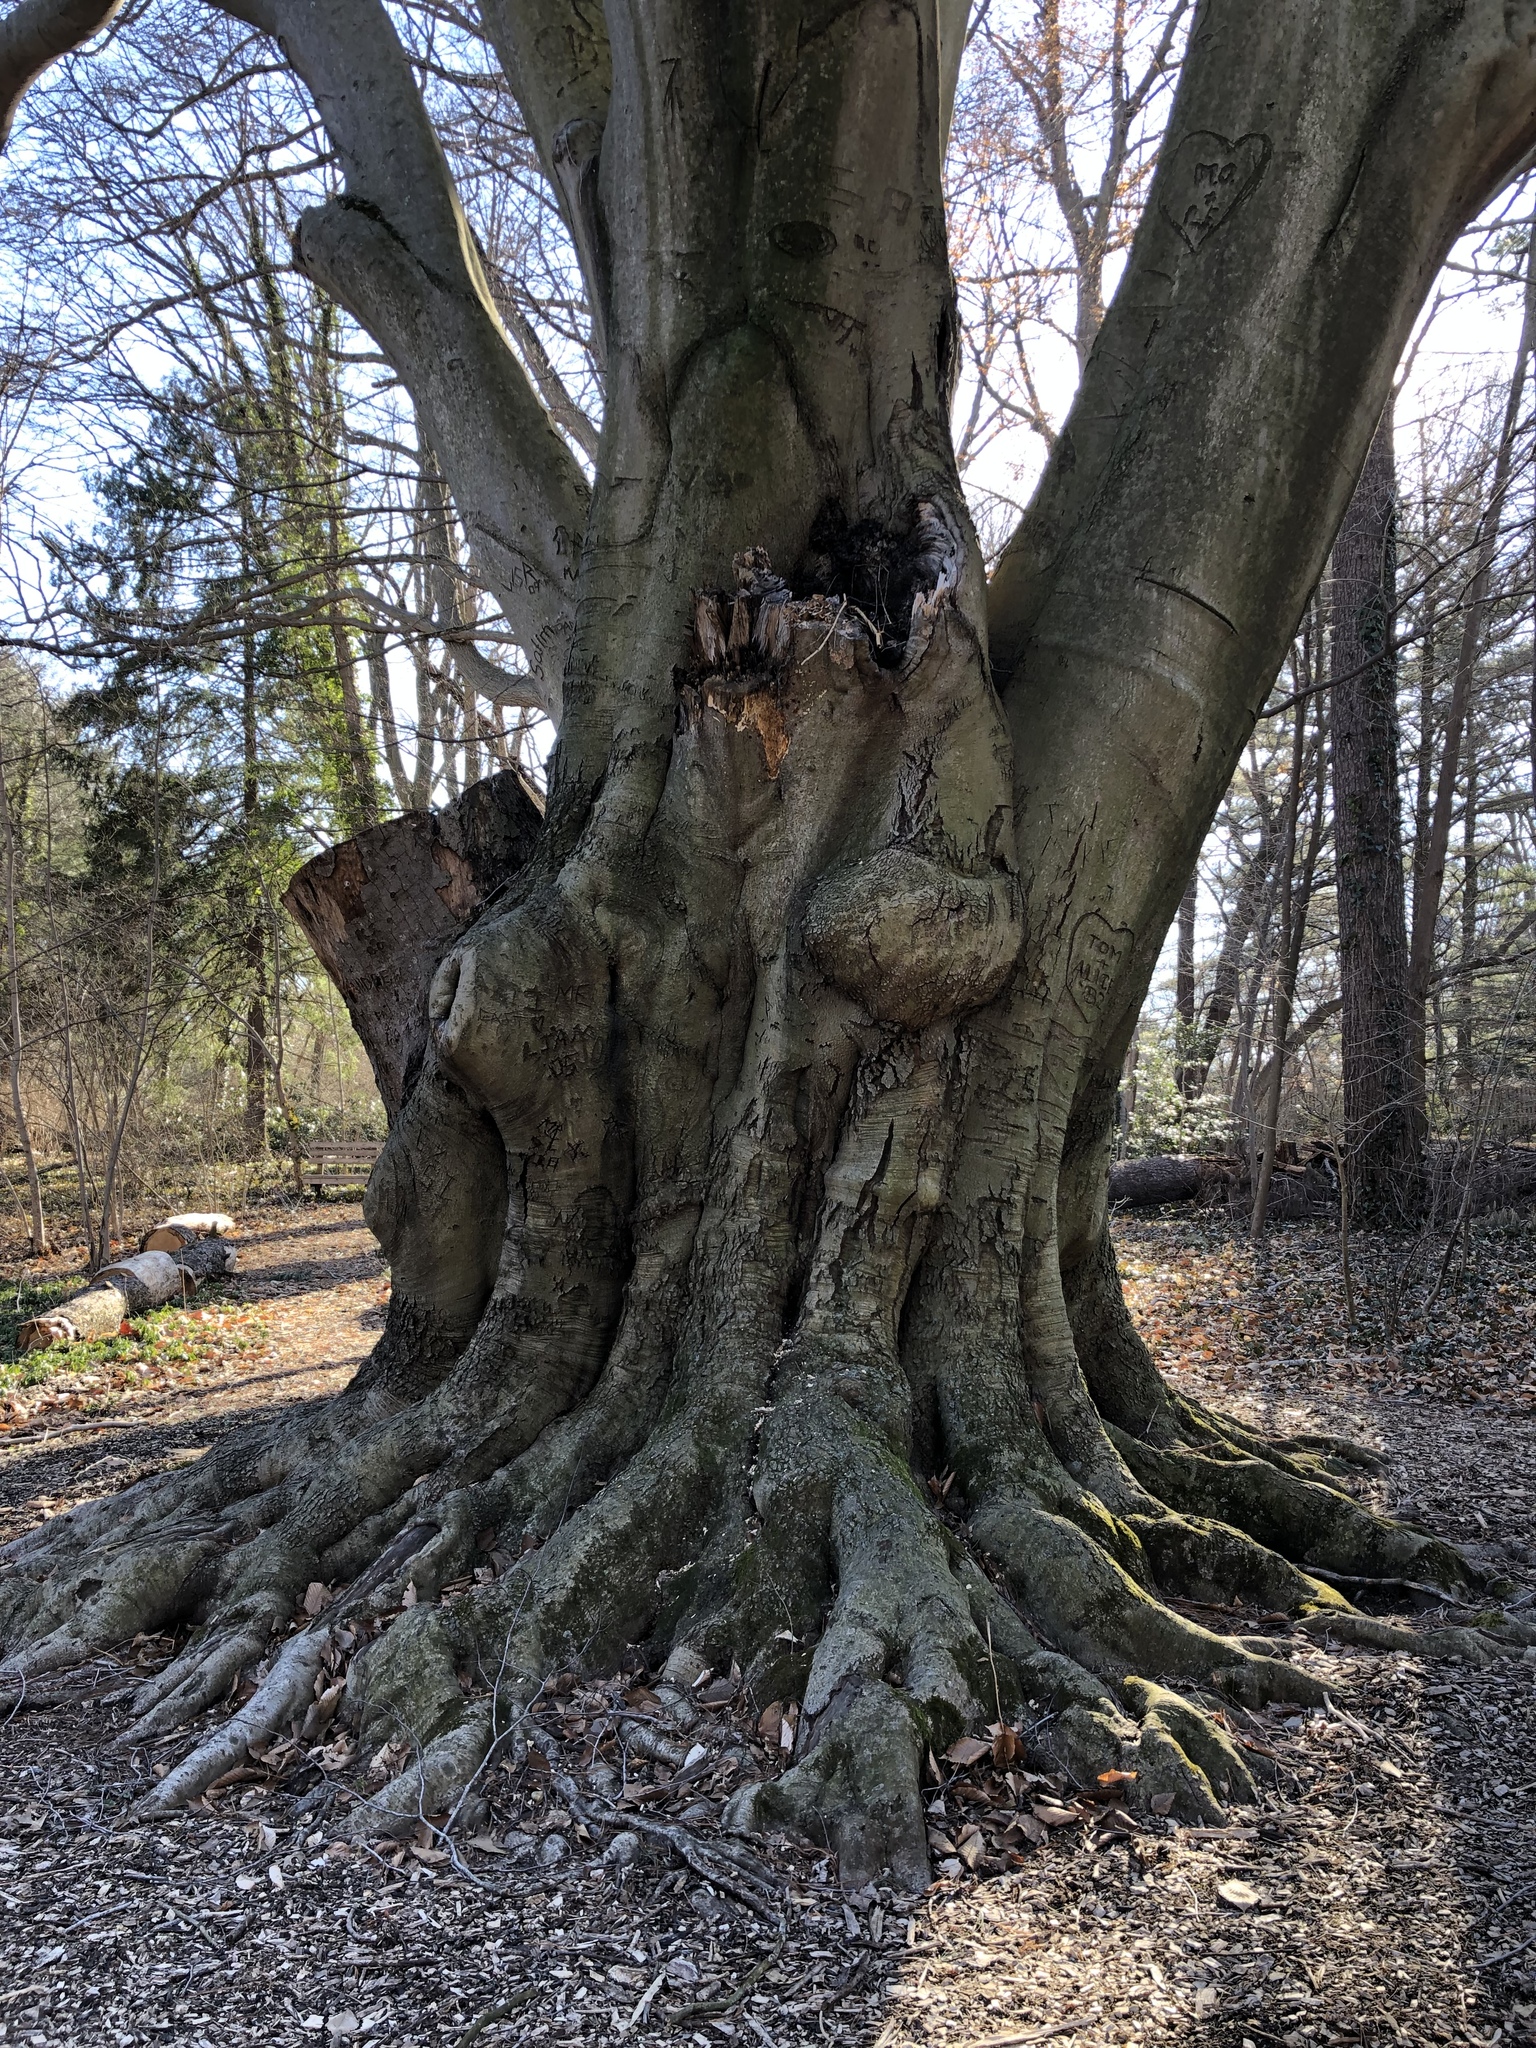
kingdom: Plantae
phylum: Tracheophyta
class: Magnoliopsida
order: Fagales
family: Fagaceae
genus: Fagus
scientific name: Fagus grandifolia
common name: American beech
